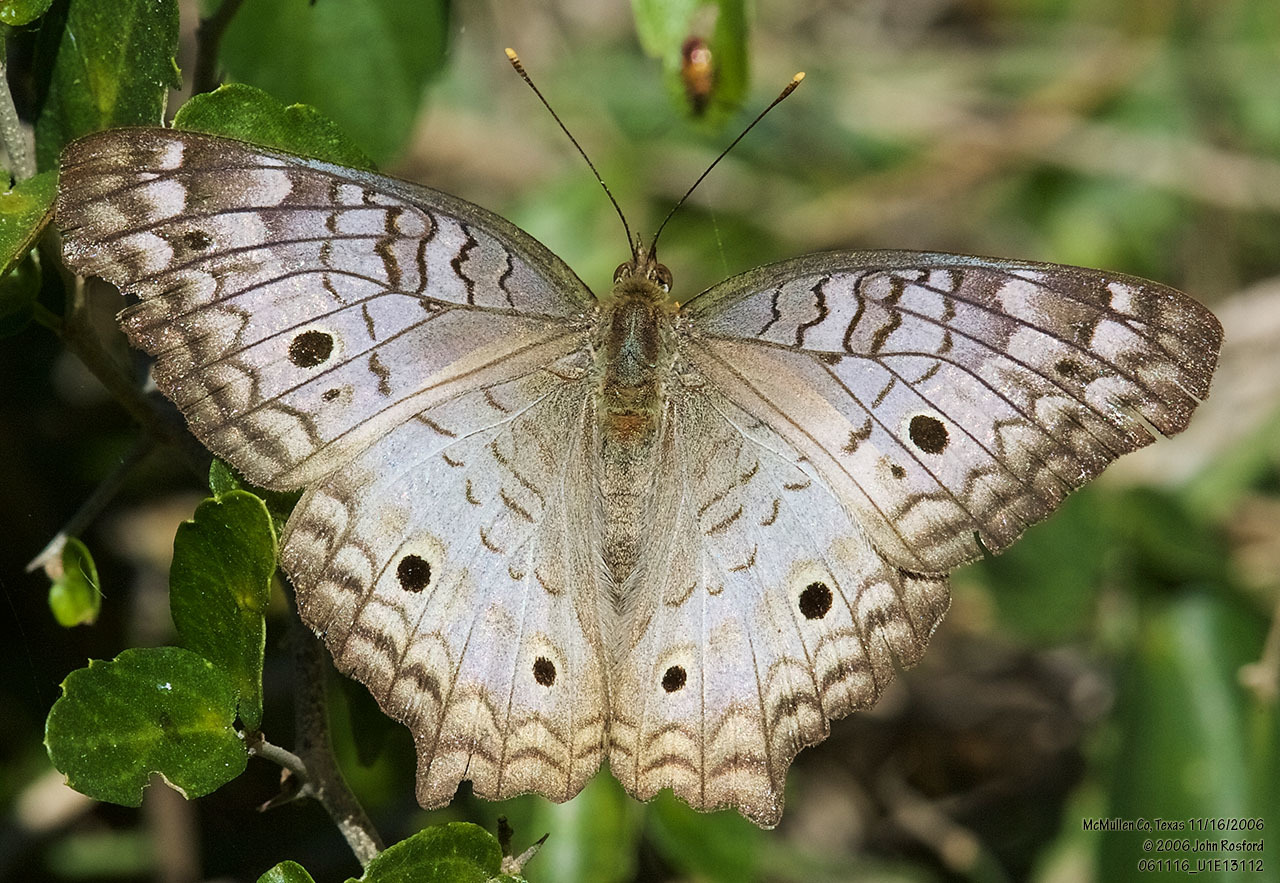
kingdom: Animalia
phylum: Arthropoda
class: Insecta
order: Lepidoptera
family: Nymphalidae
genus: Anartia
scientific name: Anartia jatrophae
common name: White peacock
